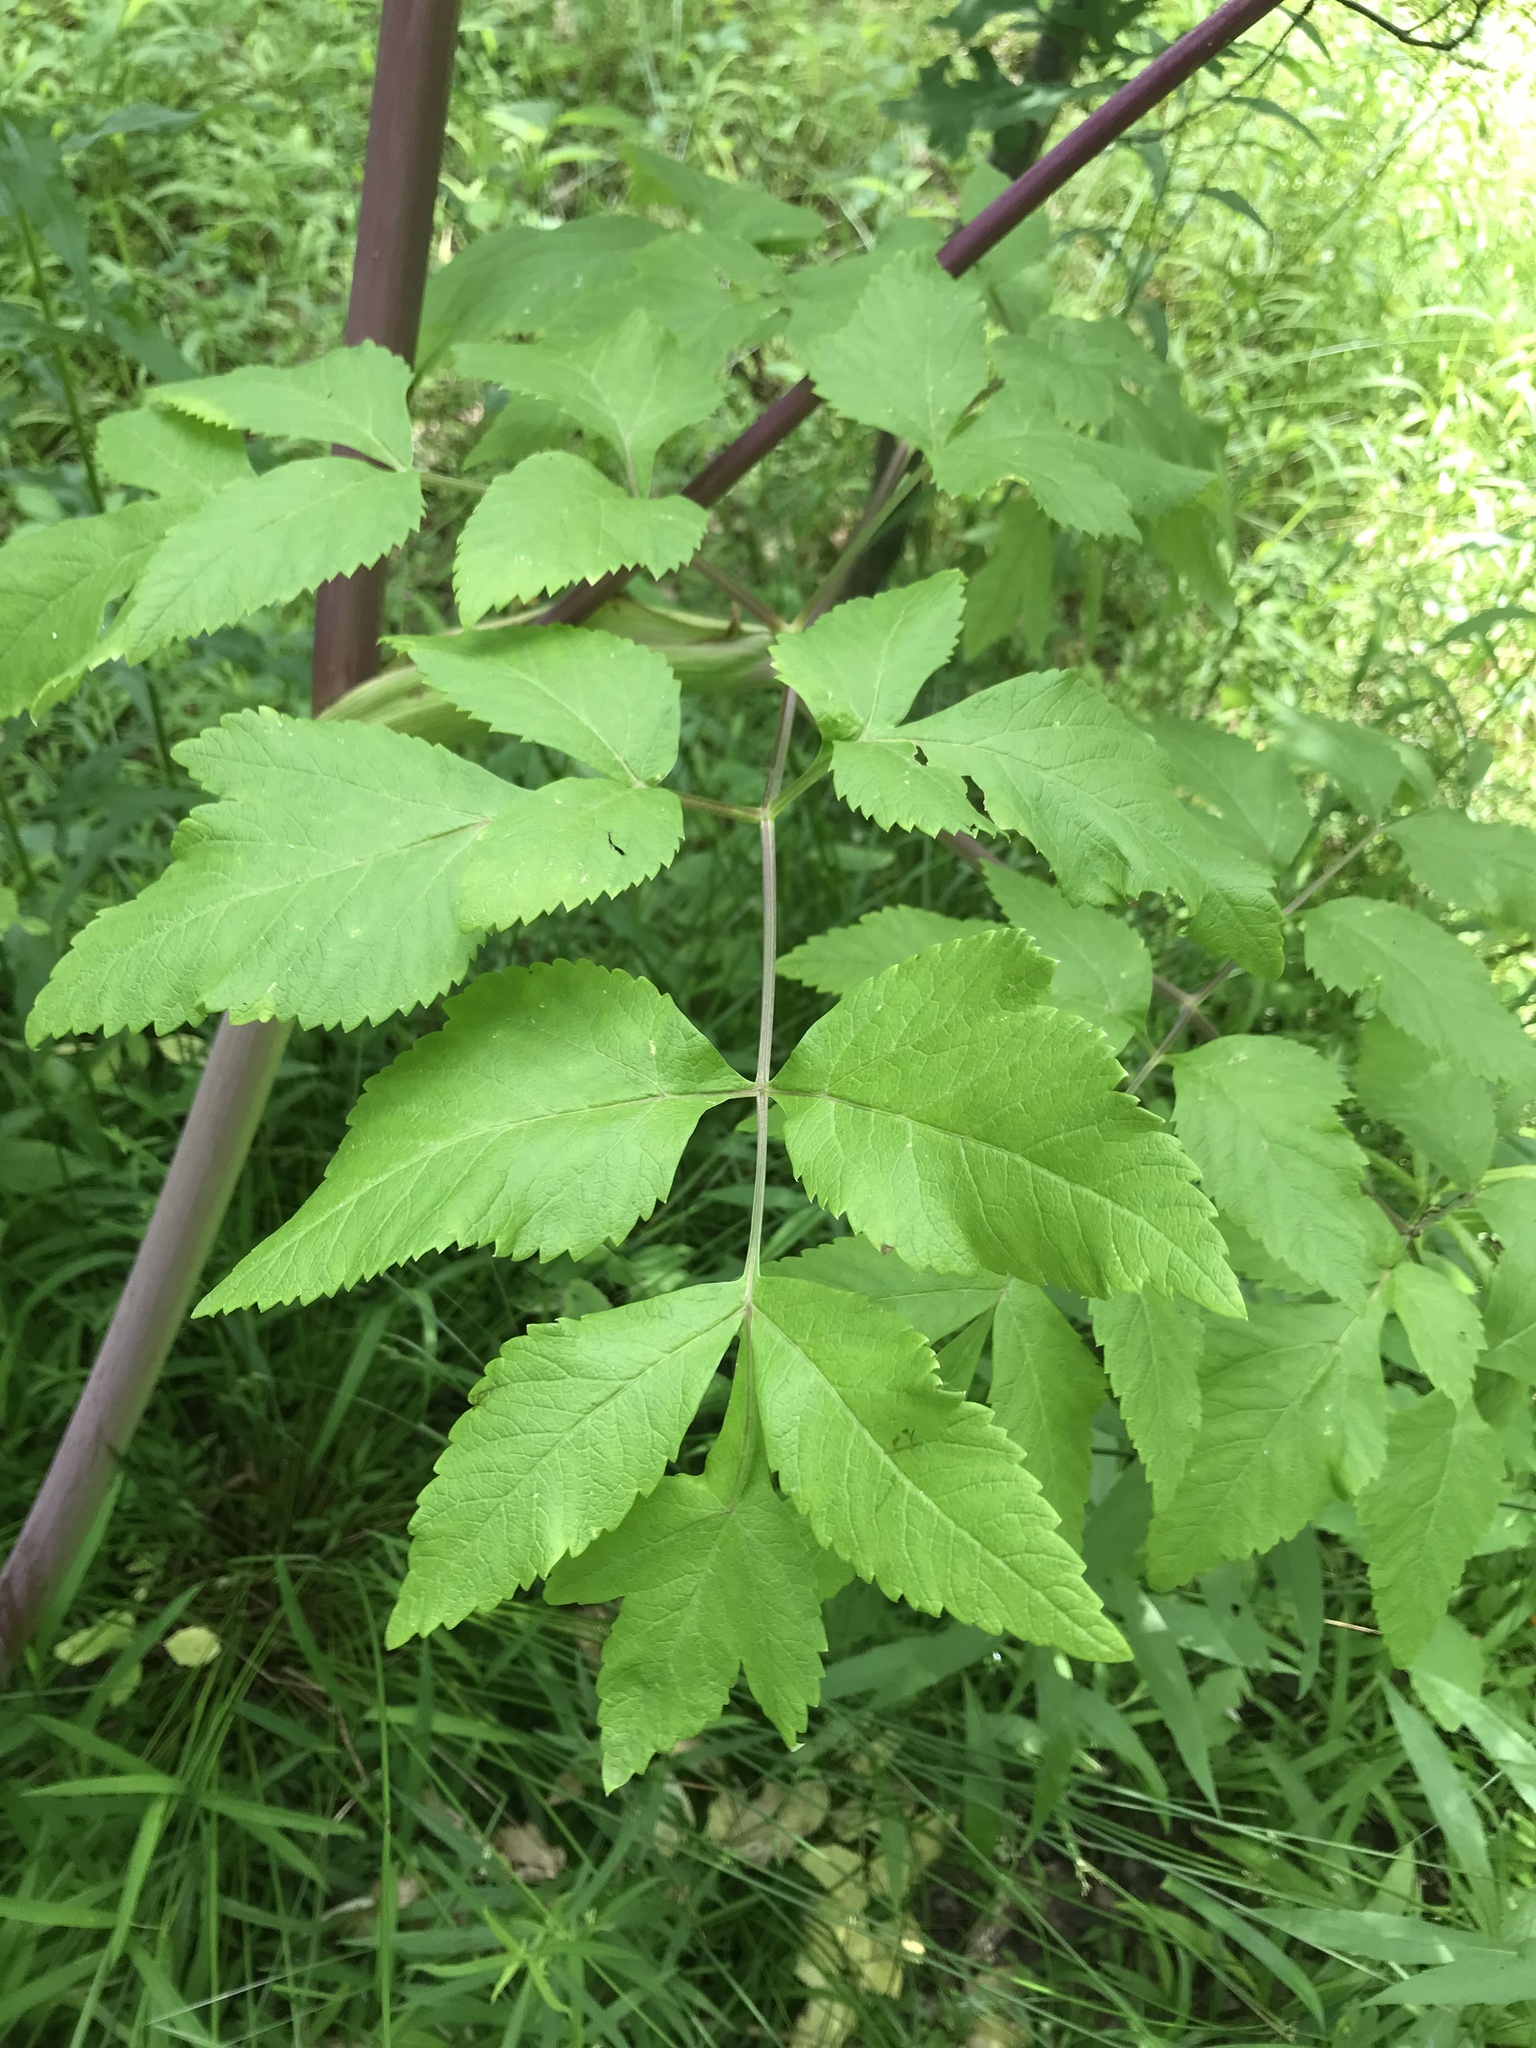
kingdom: Plantae
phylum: Tracheophyta
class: Magnoliopsida
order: Apiales
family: Apiaceae
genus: Angelica
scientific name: Angelica atropurpurea
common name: Great angelica
